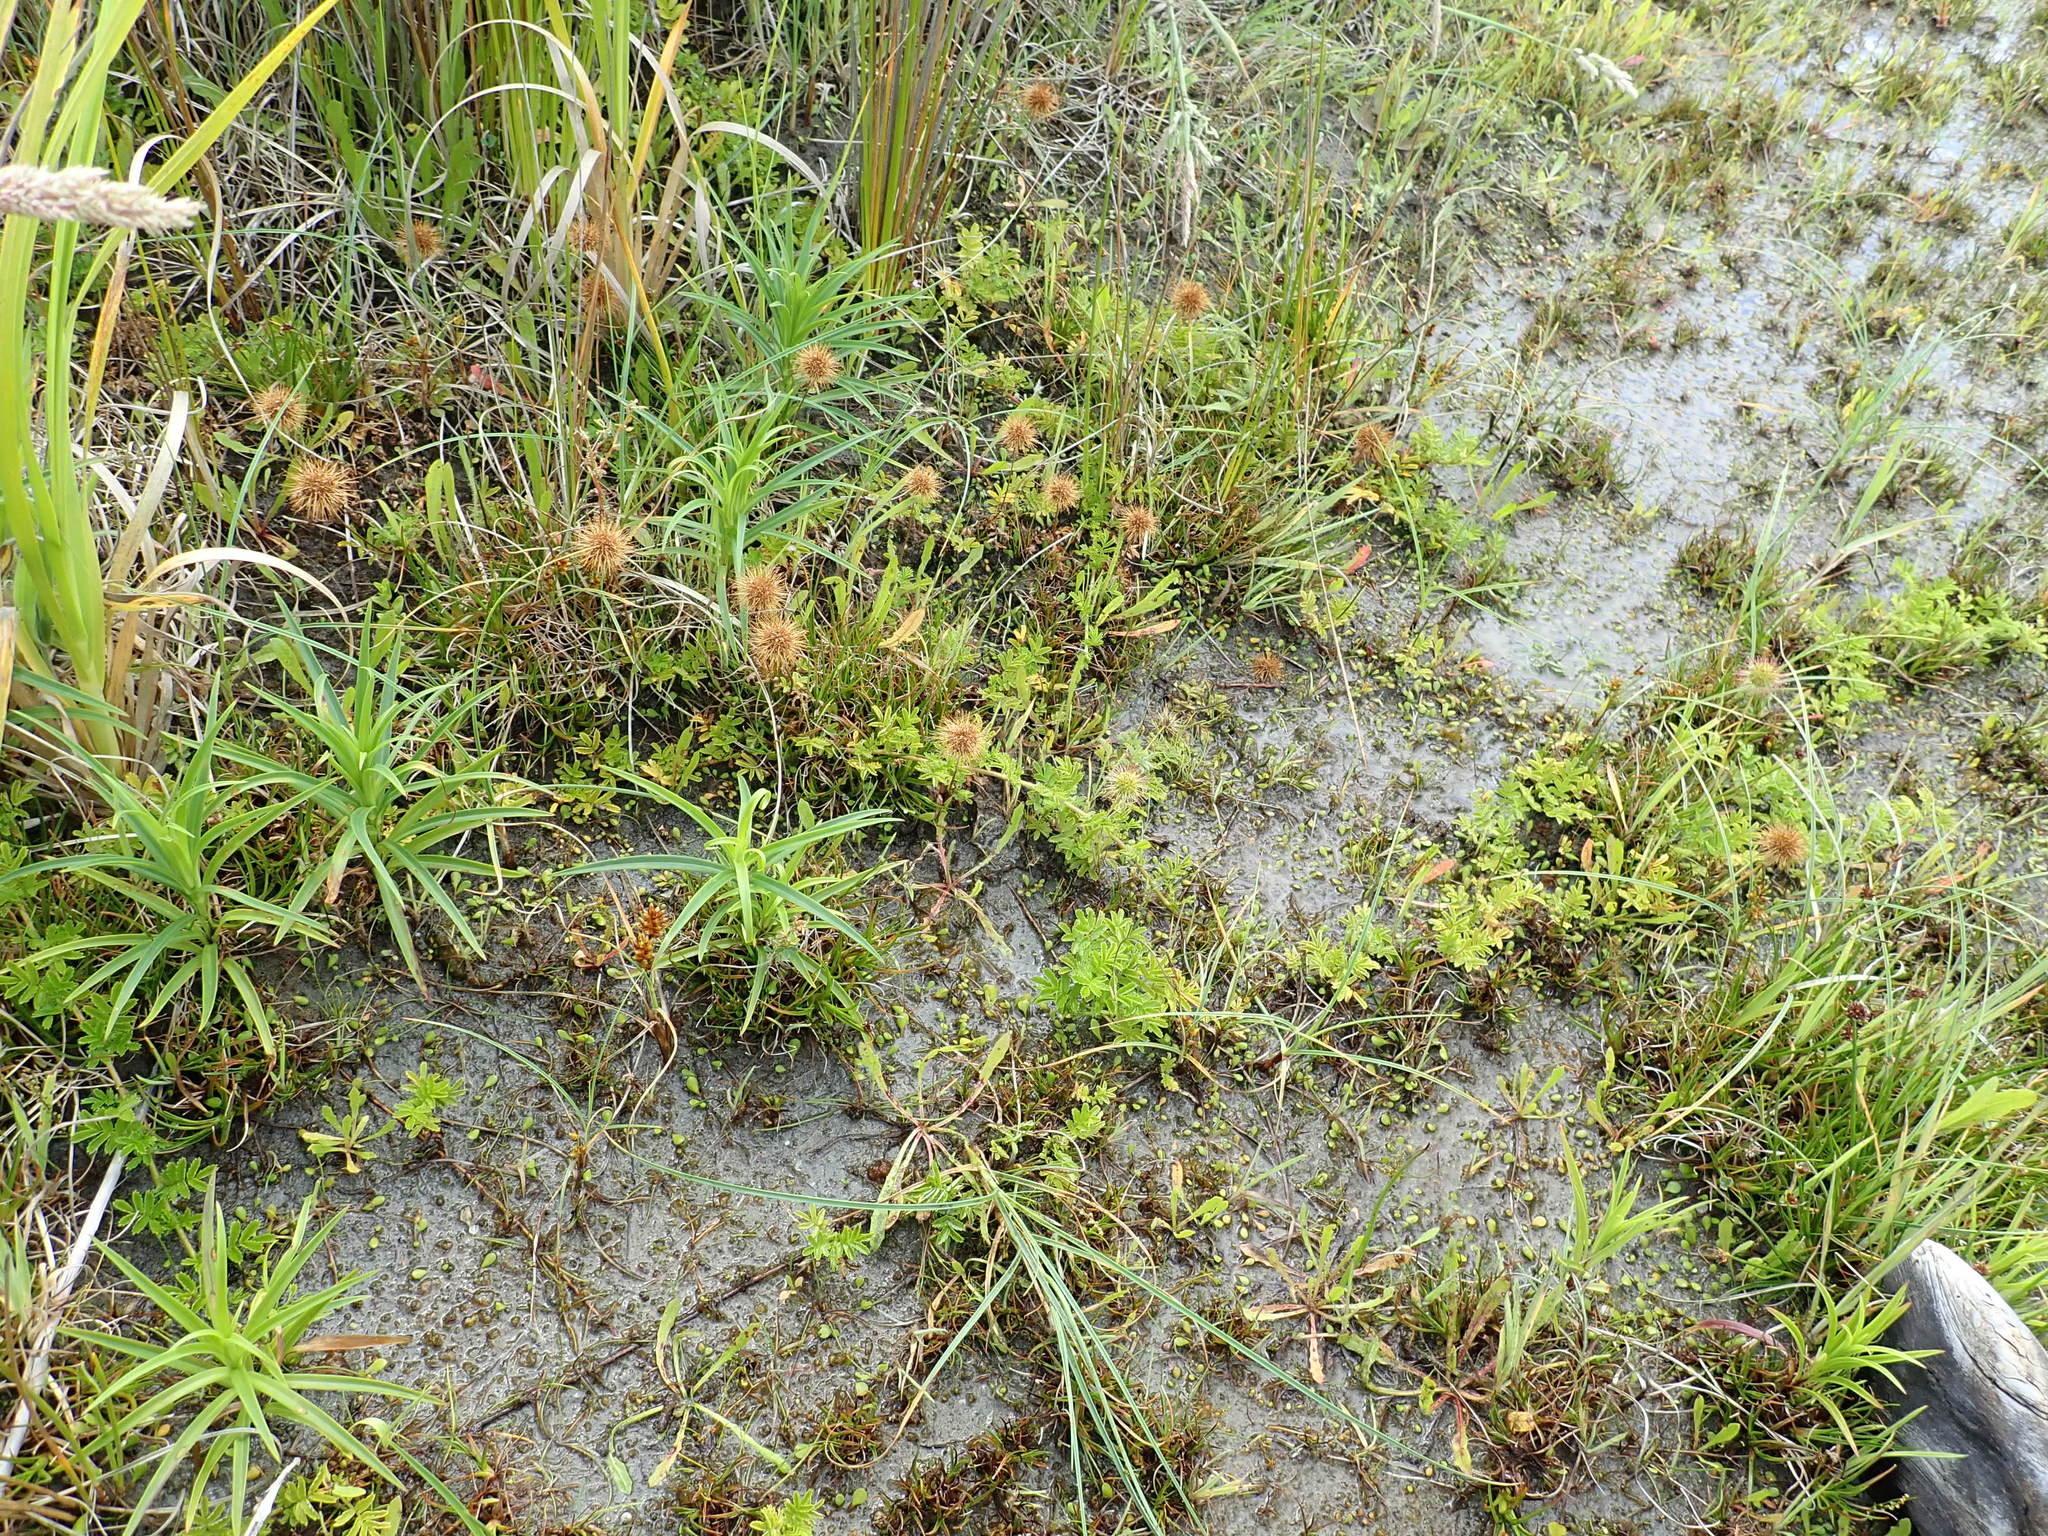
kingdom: Plantae
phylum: Tracheophyta
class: Magnoliopsida
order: Rosales
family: Rosaceae
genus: Acaena
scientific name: Acaena novae-zelandiae
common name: Pirri-pirri-bur
